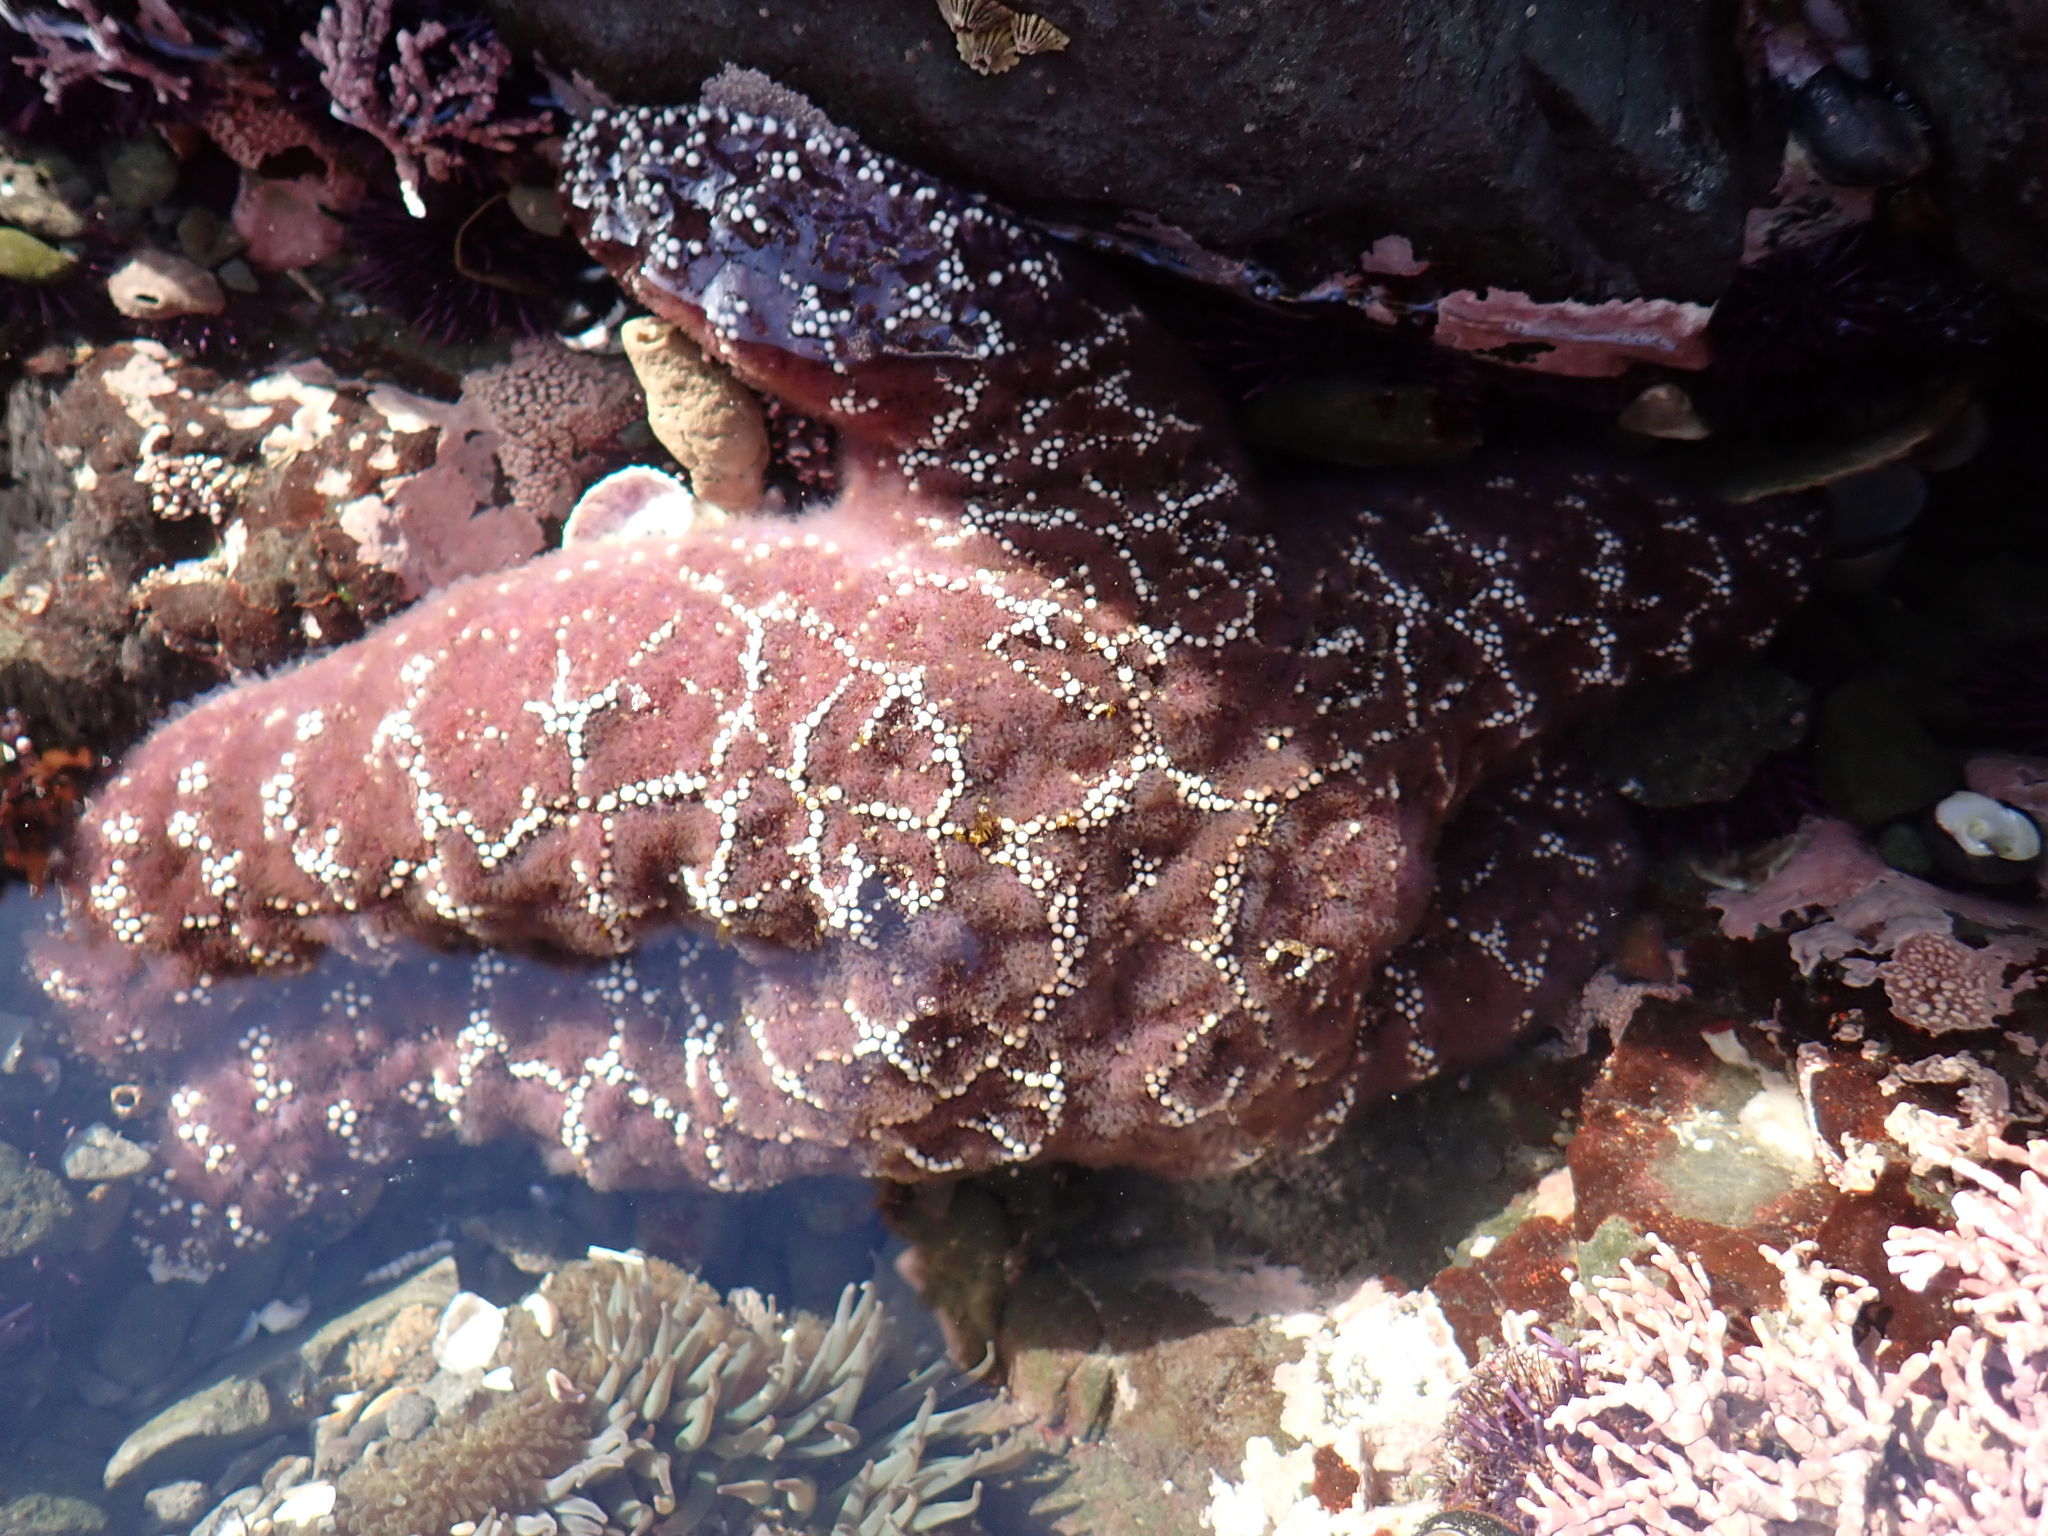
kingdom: Animalia
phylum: Echinodermata
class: Asteroidea
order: Forcipulatida
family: Asteriidae
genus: Pisaster
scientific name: Pisaster ochraceus
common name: Ochre stars
